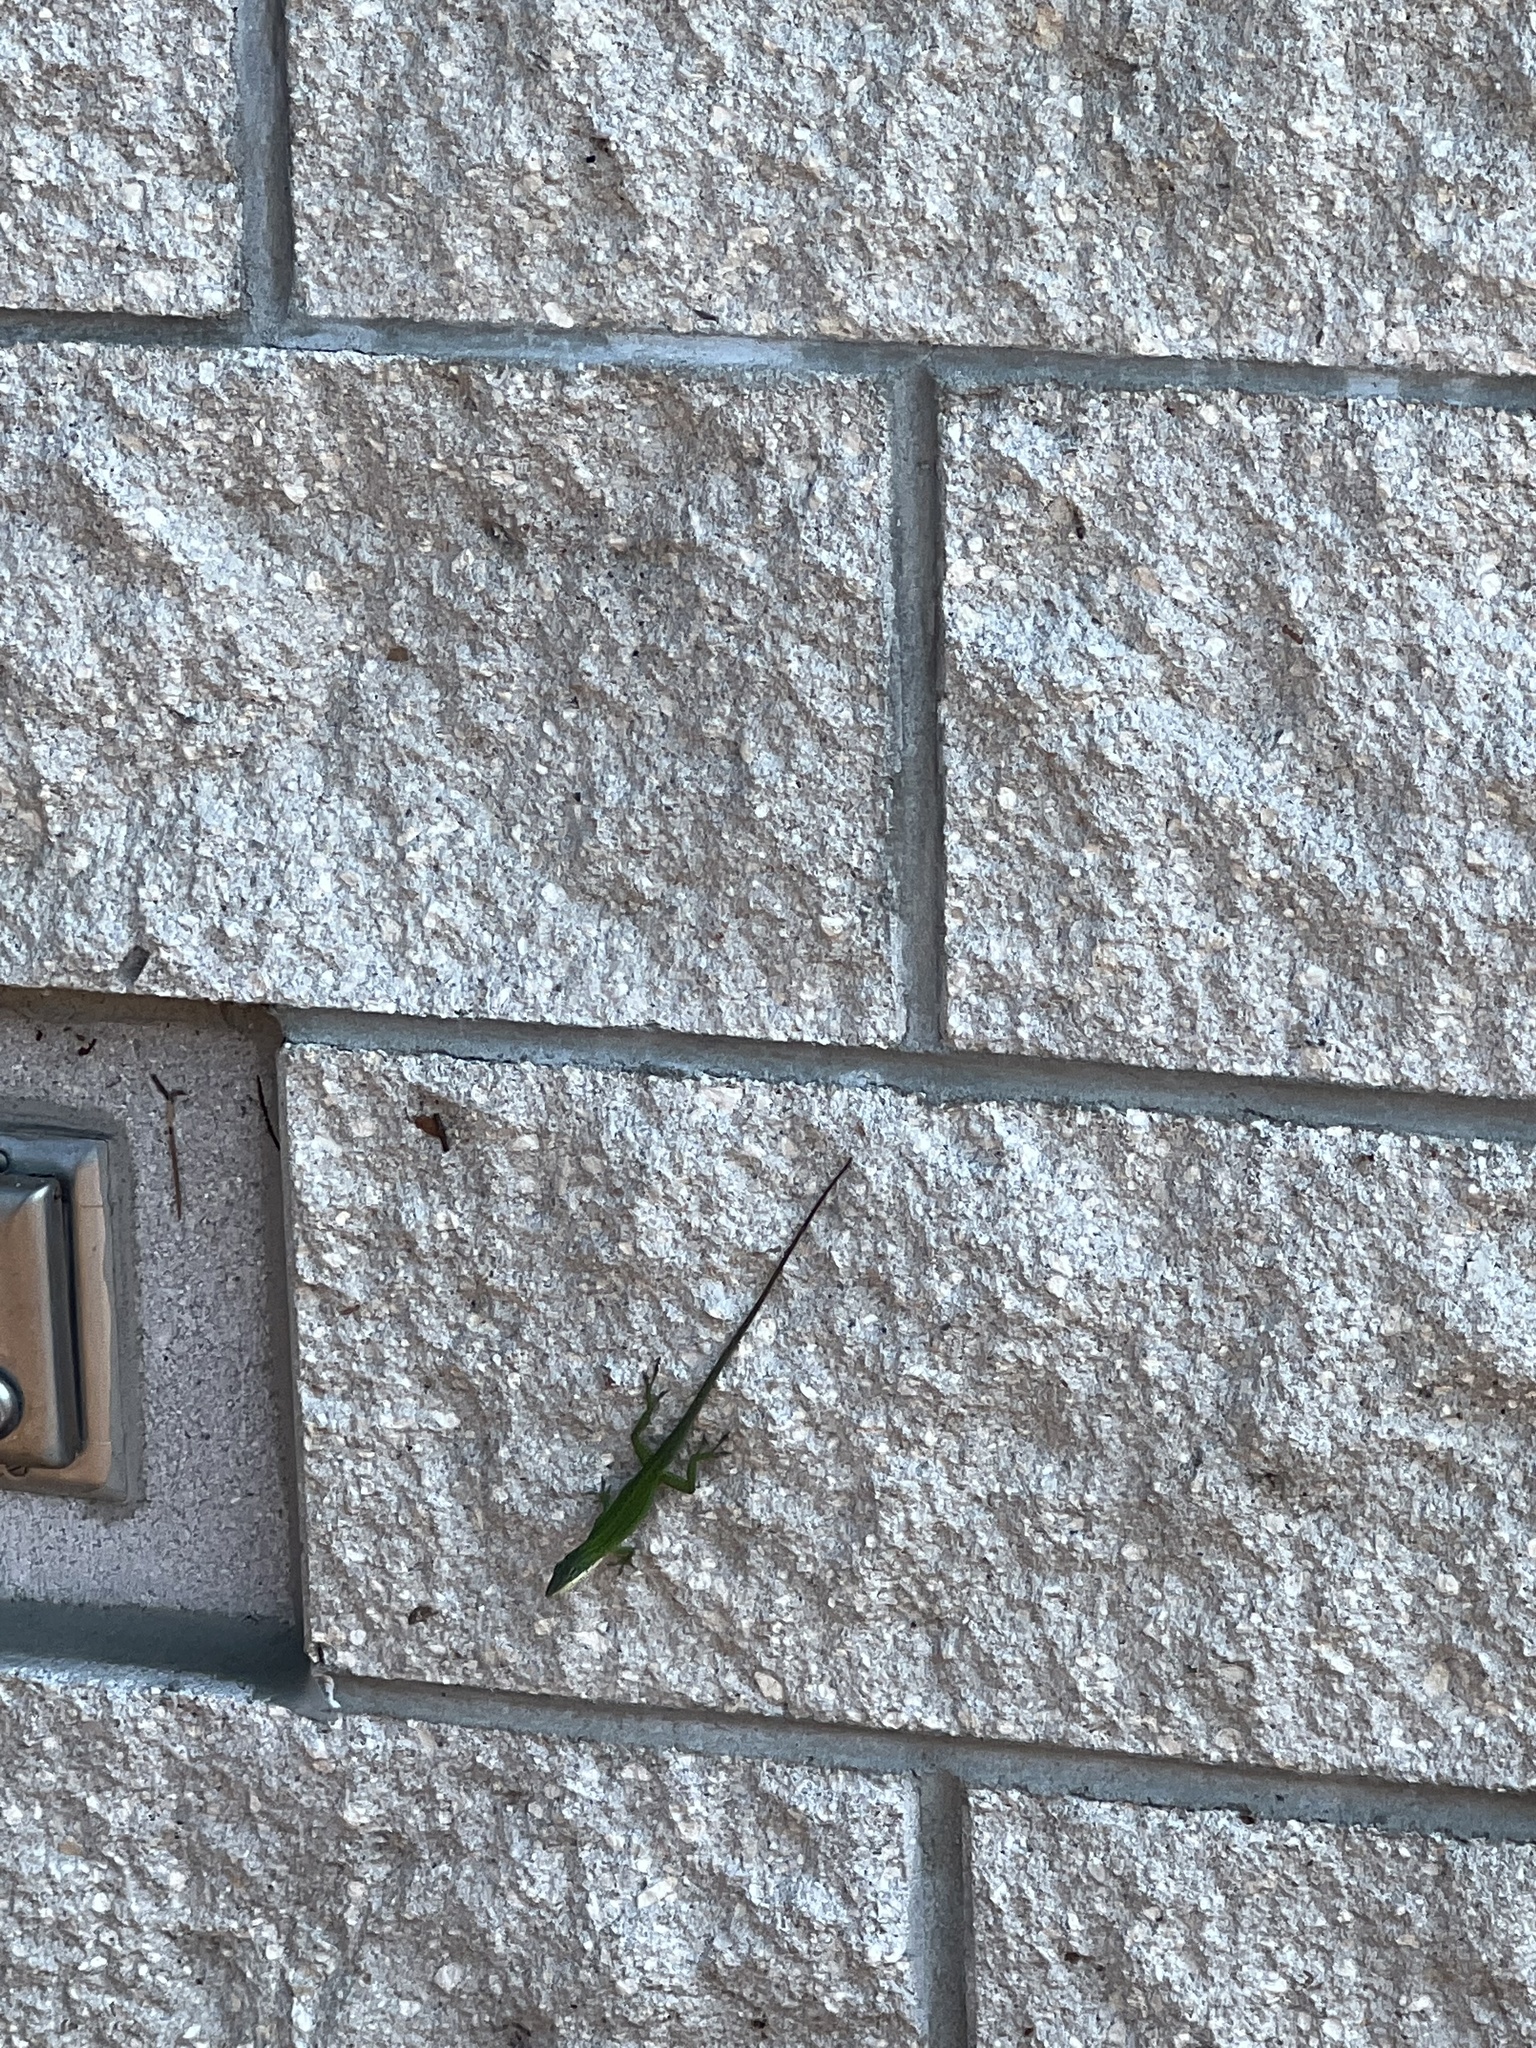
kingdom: Animalia
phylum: Chordata
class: Squamata
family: Dactyloidae
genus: Anolis
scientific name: Anolis carolinensis
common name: Green anole
